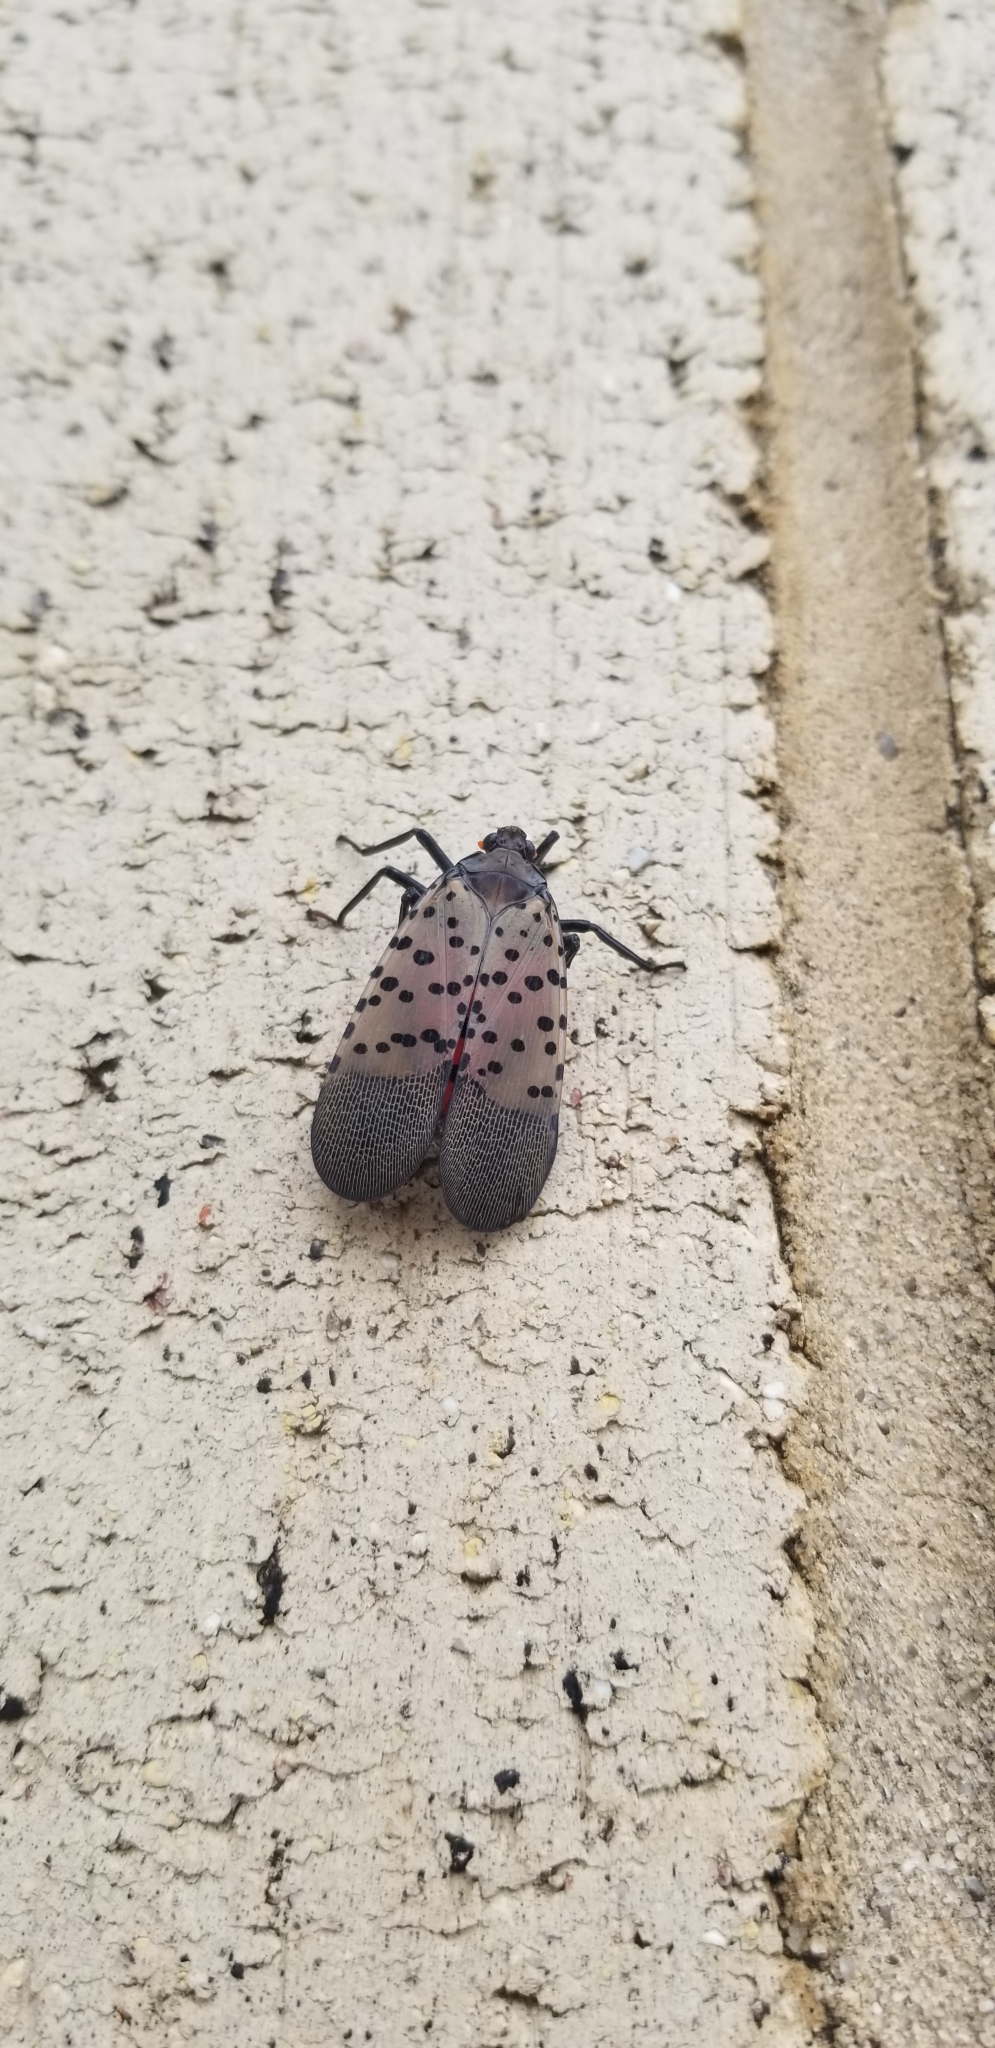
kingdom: Animalia
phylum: Arthropoda
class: Insecta
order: Hemiptera
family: Fulgoridae
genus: Lycorma
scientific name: Lycorma delicatula
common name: Spotted lanternfly
